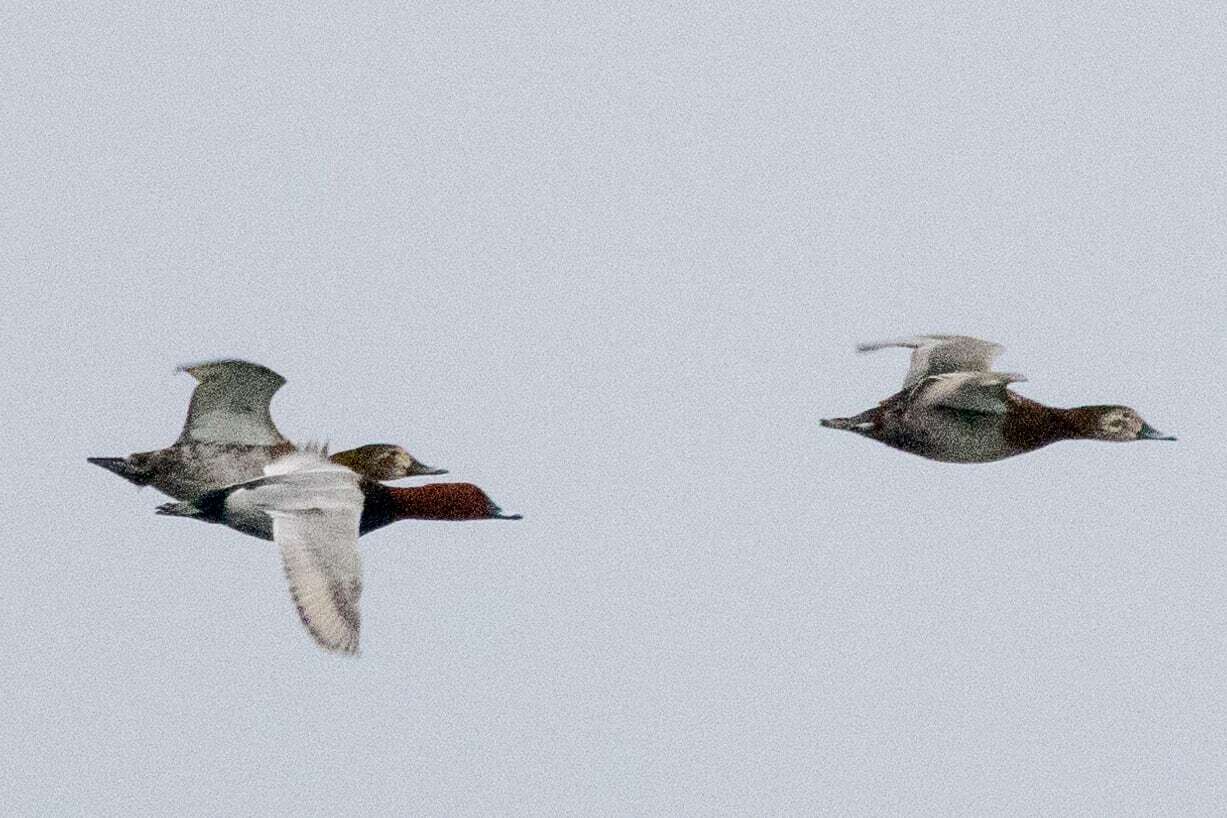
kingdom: Animalia
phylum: Chordata
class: Aves
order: Anseriformes
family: Anatidae
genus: Aythya
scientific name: Aythya ferina
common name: Common pochard
